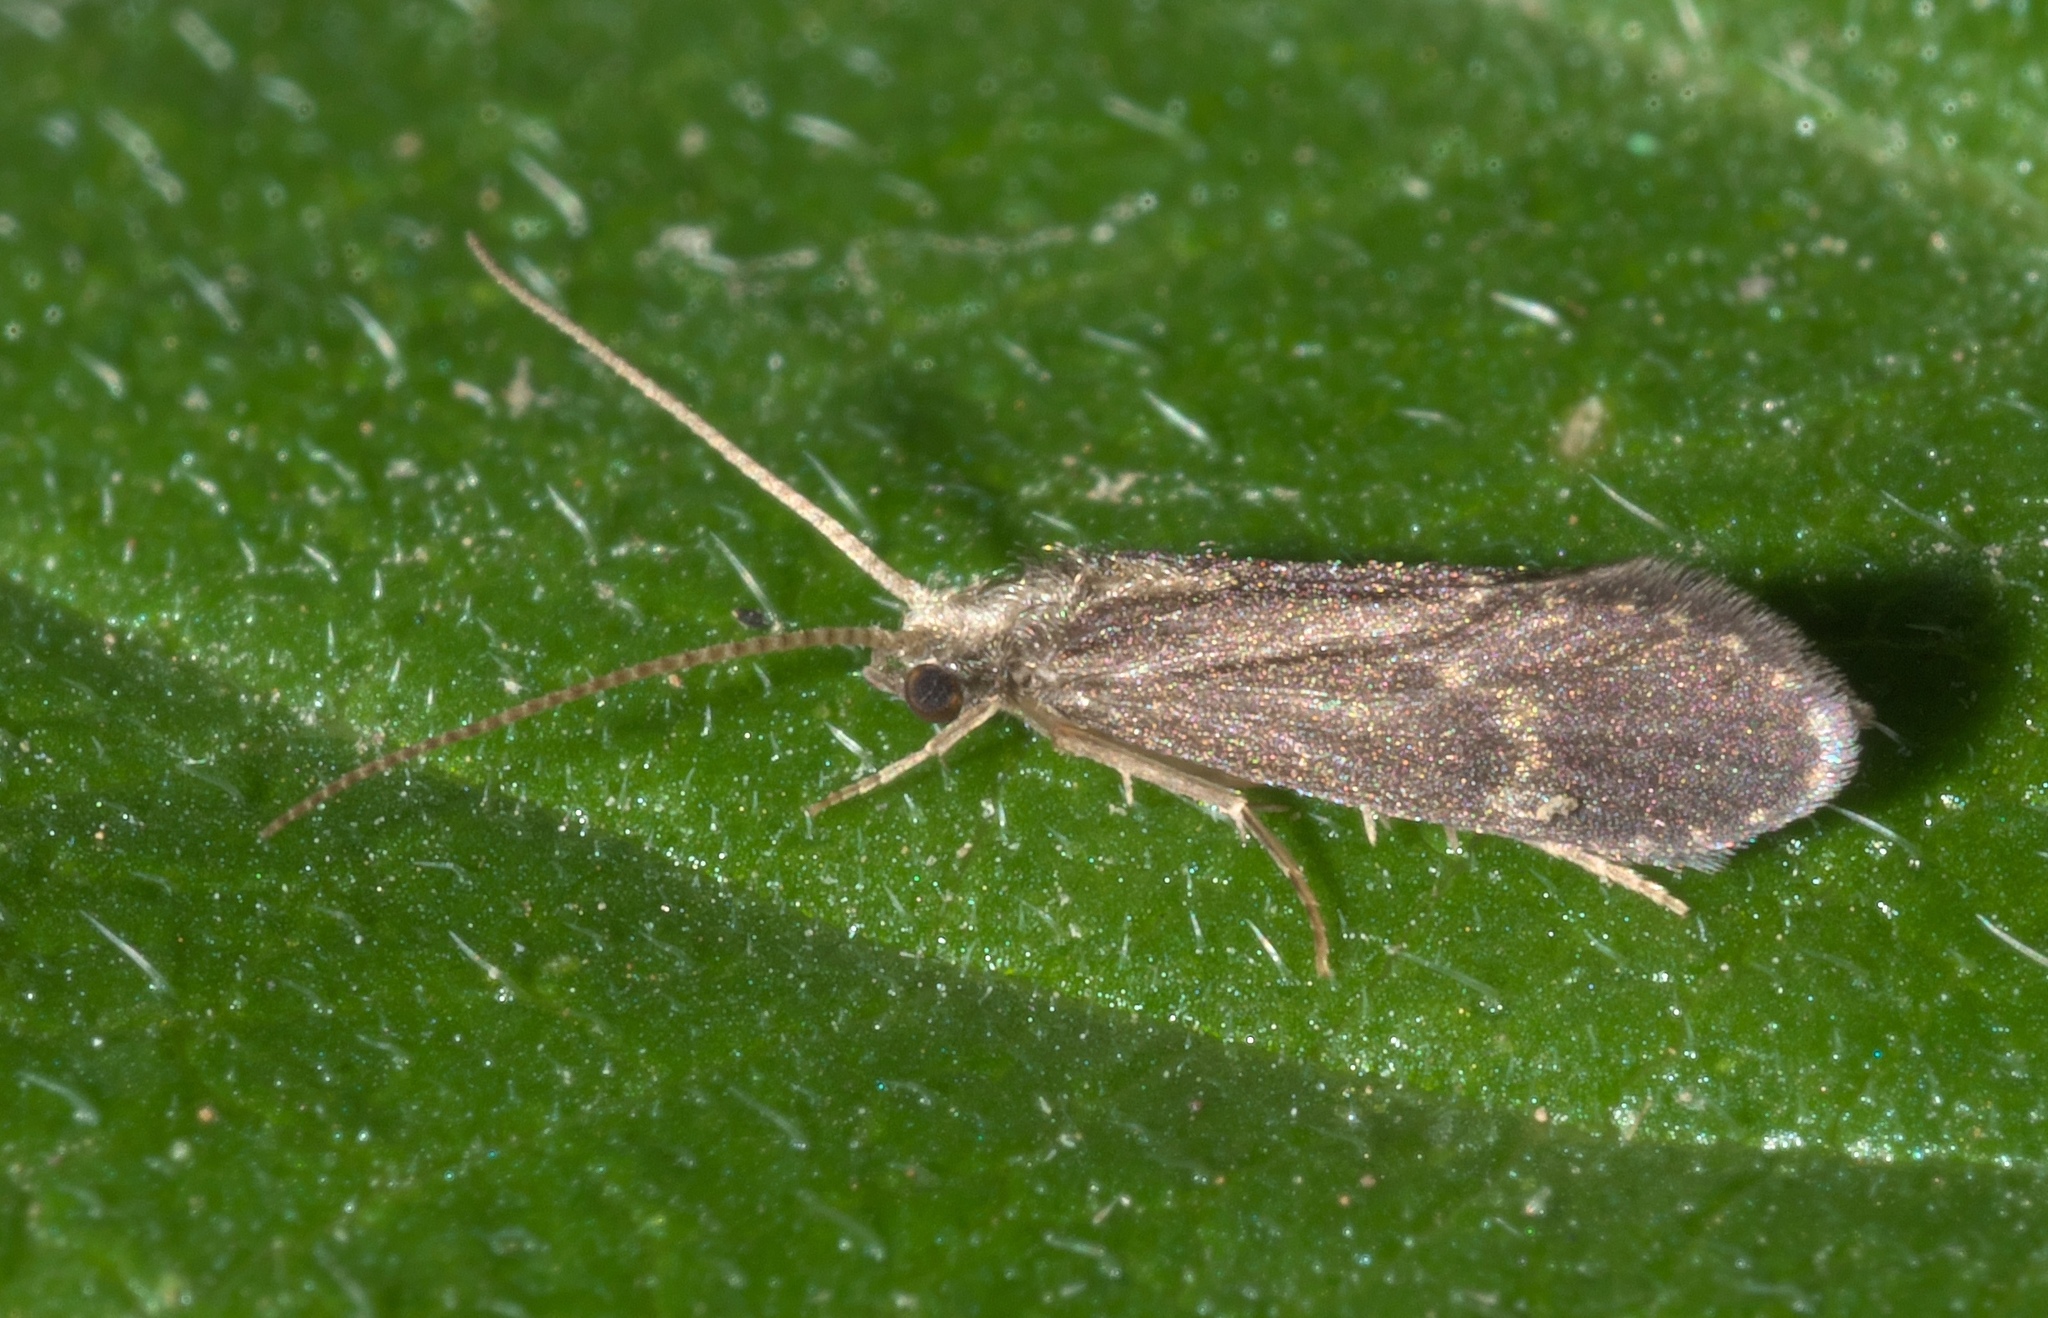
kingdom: Animalia
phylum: Arthropoda
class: Insecta
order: Trichoptera
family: Polycentropodidae
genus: Cyrnellus
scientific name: Cyrnellus fraternus
